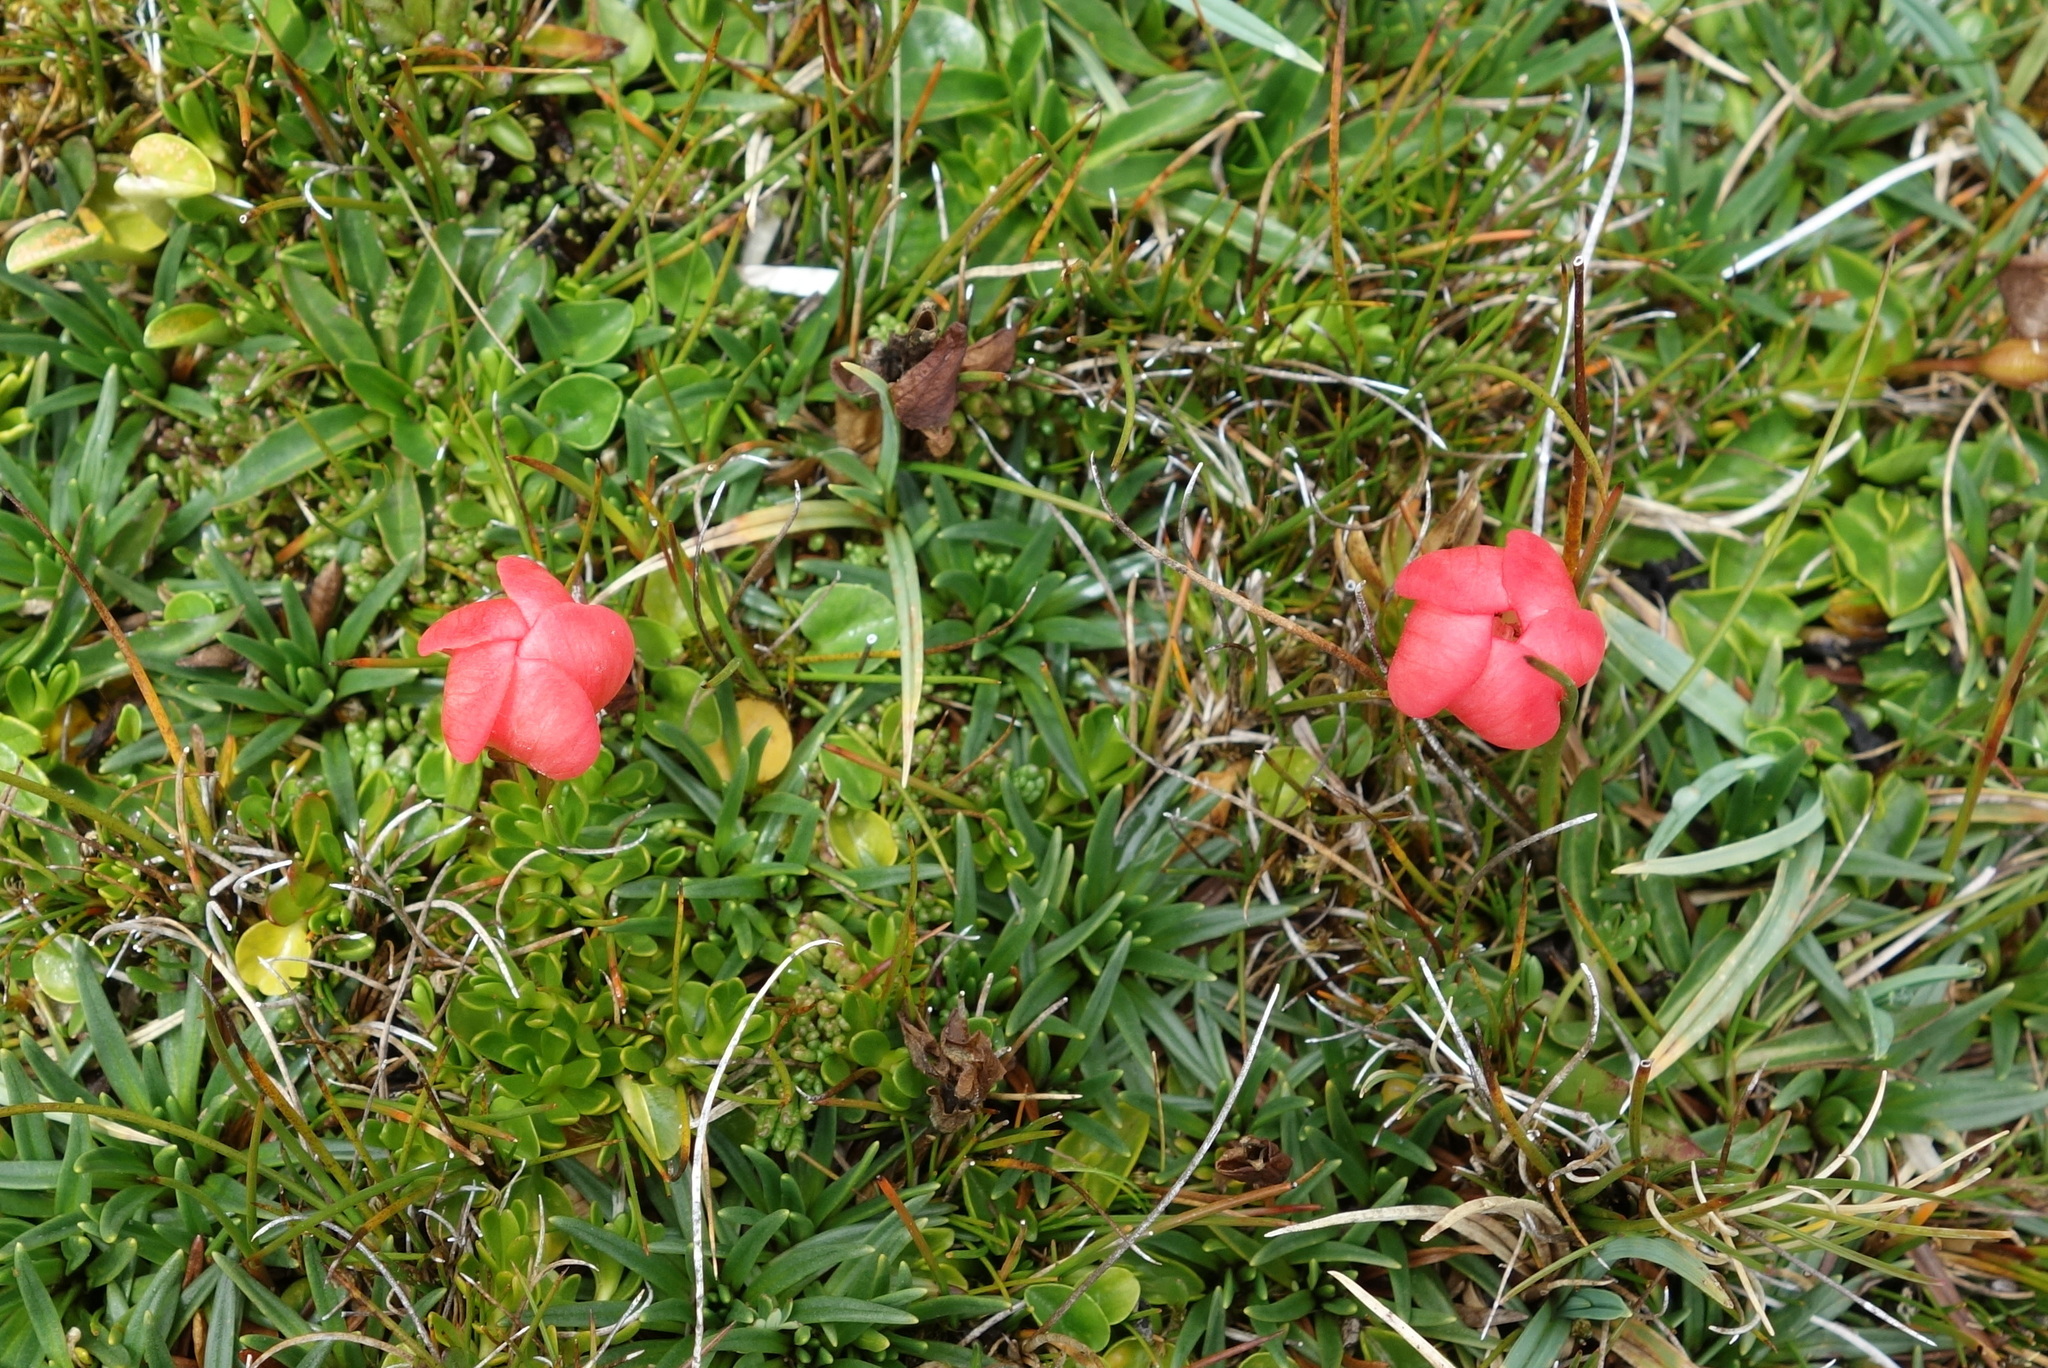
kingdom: Plantae
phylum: Tracheophyta
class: Magnoliopsida
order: Gentianales
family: Gentianaceae
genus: Gentianella
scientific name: Gentianella rupicola
